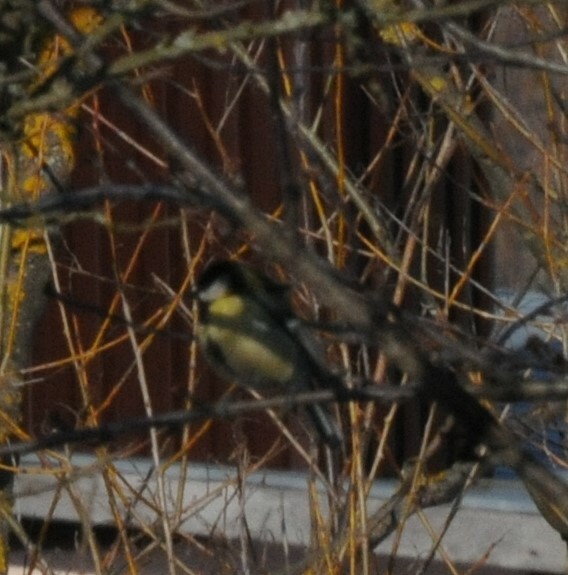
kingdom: Animalia
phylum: Chordata
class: Aves
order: Passeriformes
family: Paridae
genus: Parus
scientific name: Parus major
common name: Great tit
